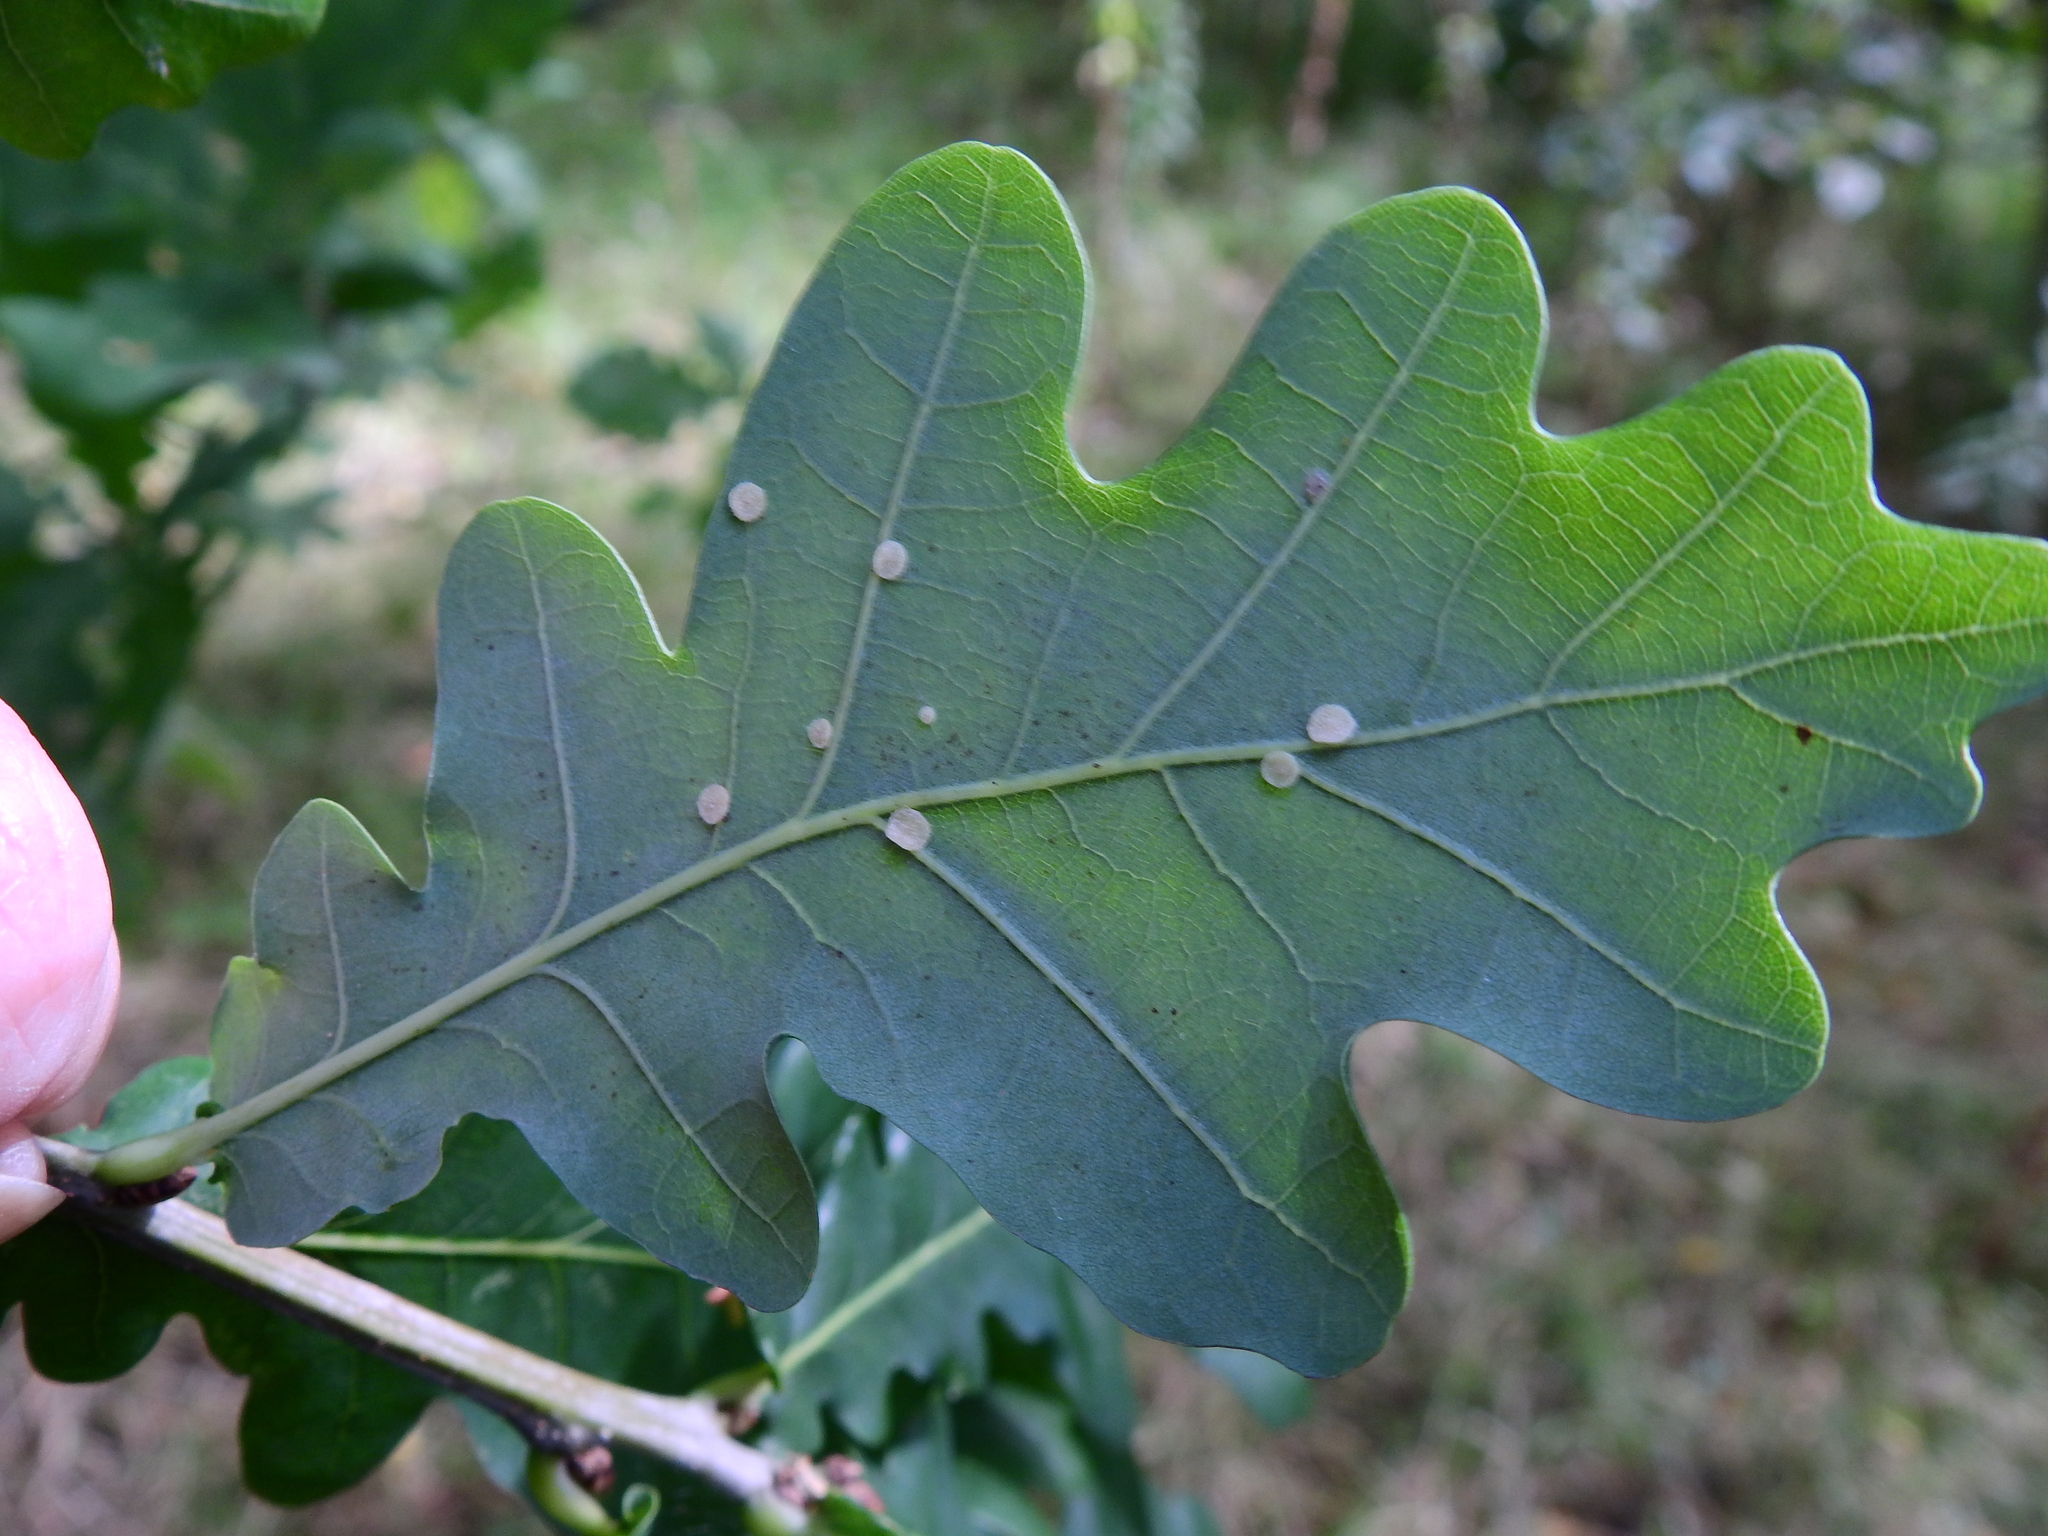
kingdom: Animalia
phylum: Arthropoda
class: Insecta
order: Hymenoptera
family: Cynipidae
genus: Neuroterus
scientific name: Neuroterus albipes
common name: Smooth spangle gall
